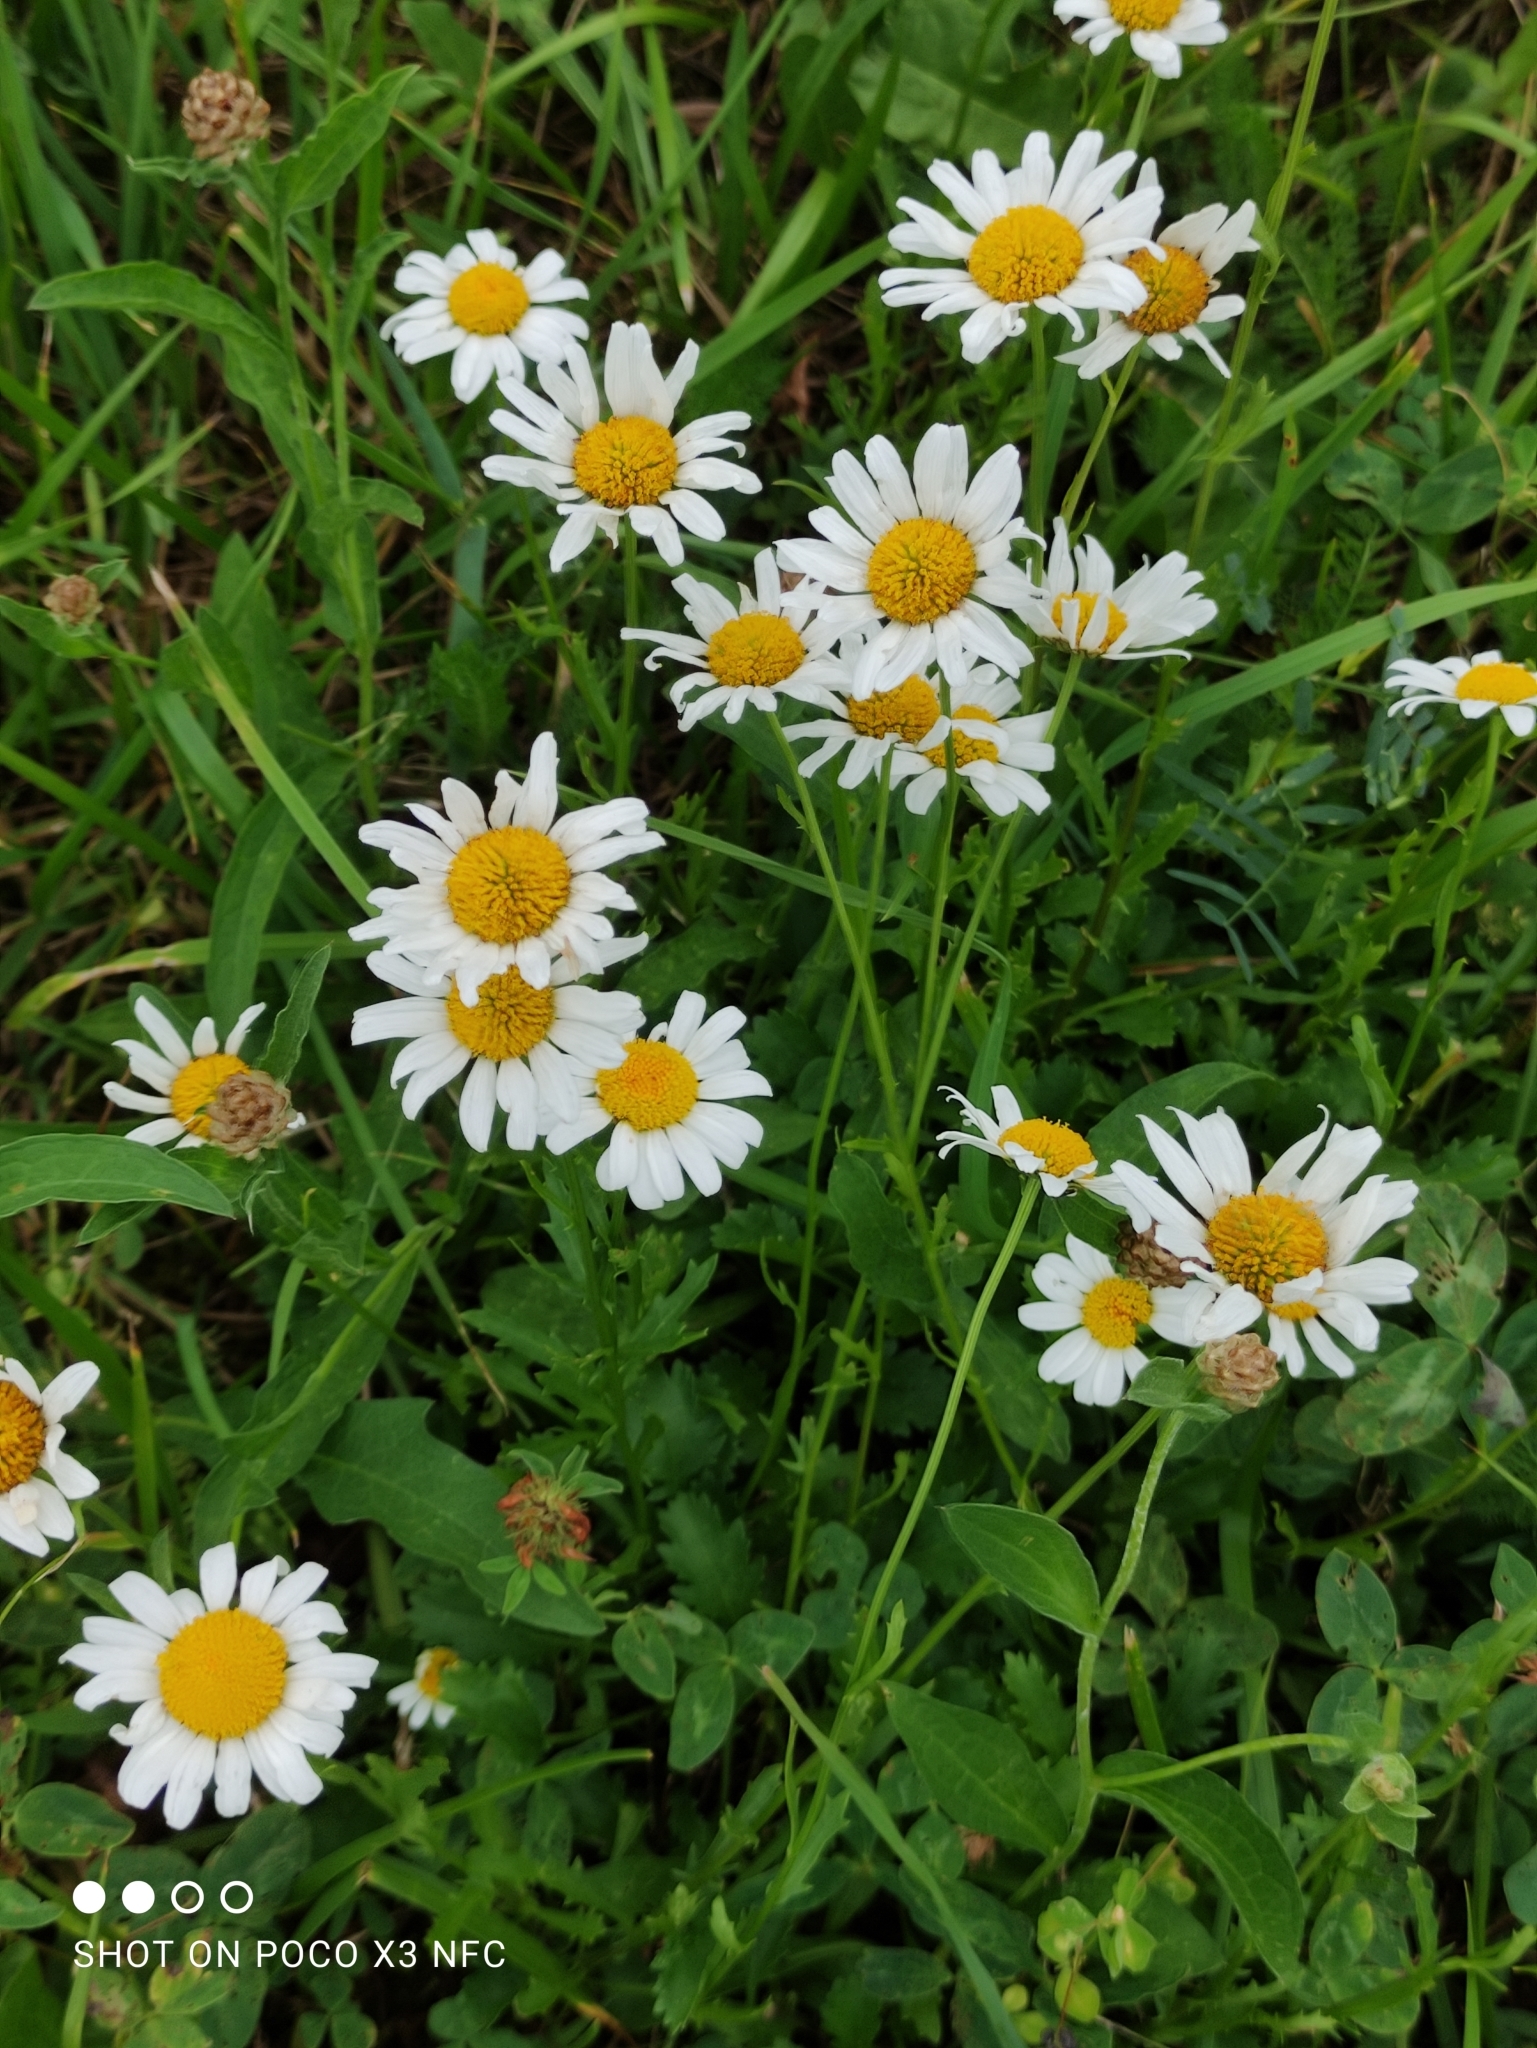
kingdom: Plantae
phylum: Tracheophyta
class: Magnoliopsida
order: Asterales
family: Asteraceae
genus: Leucanthemum
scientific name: Leucanthemum vulgare
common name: Oxeye daisy
